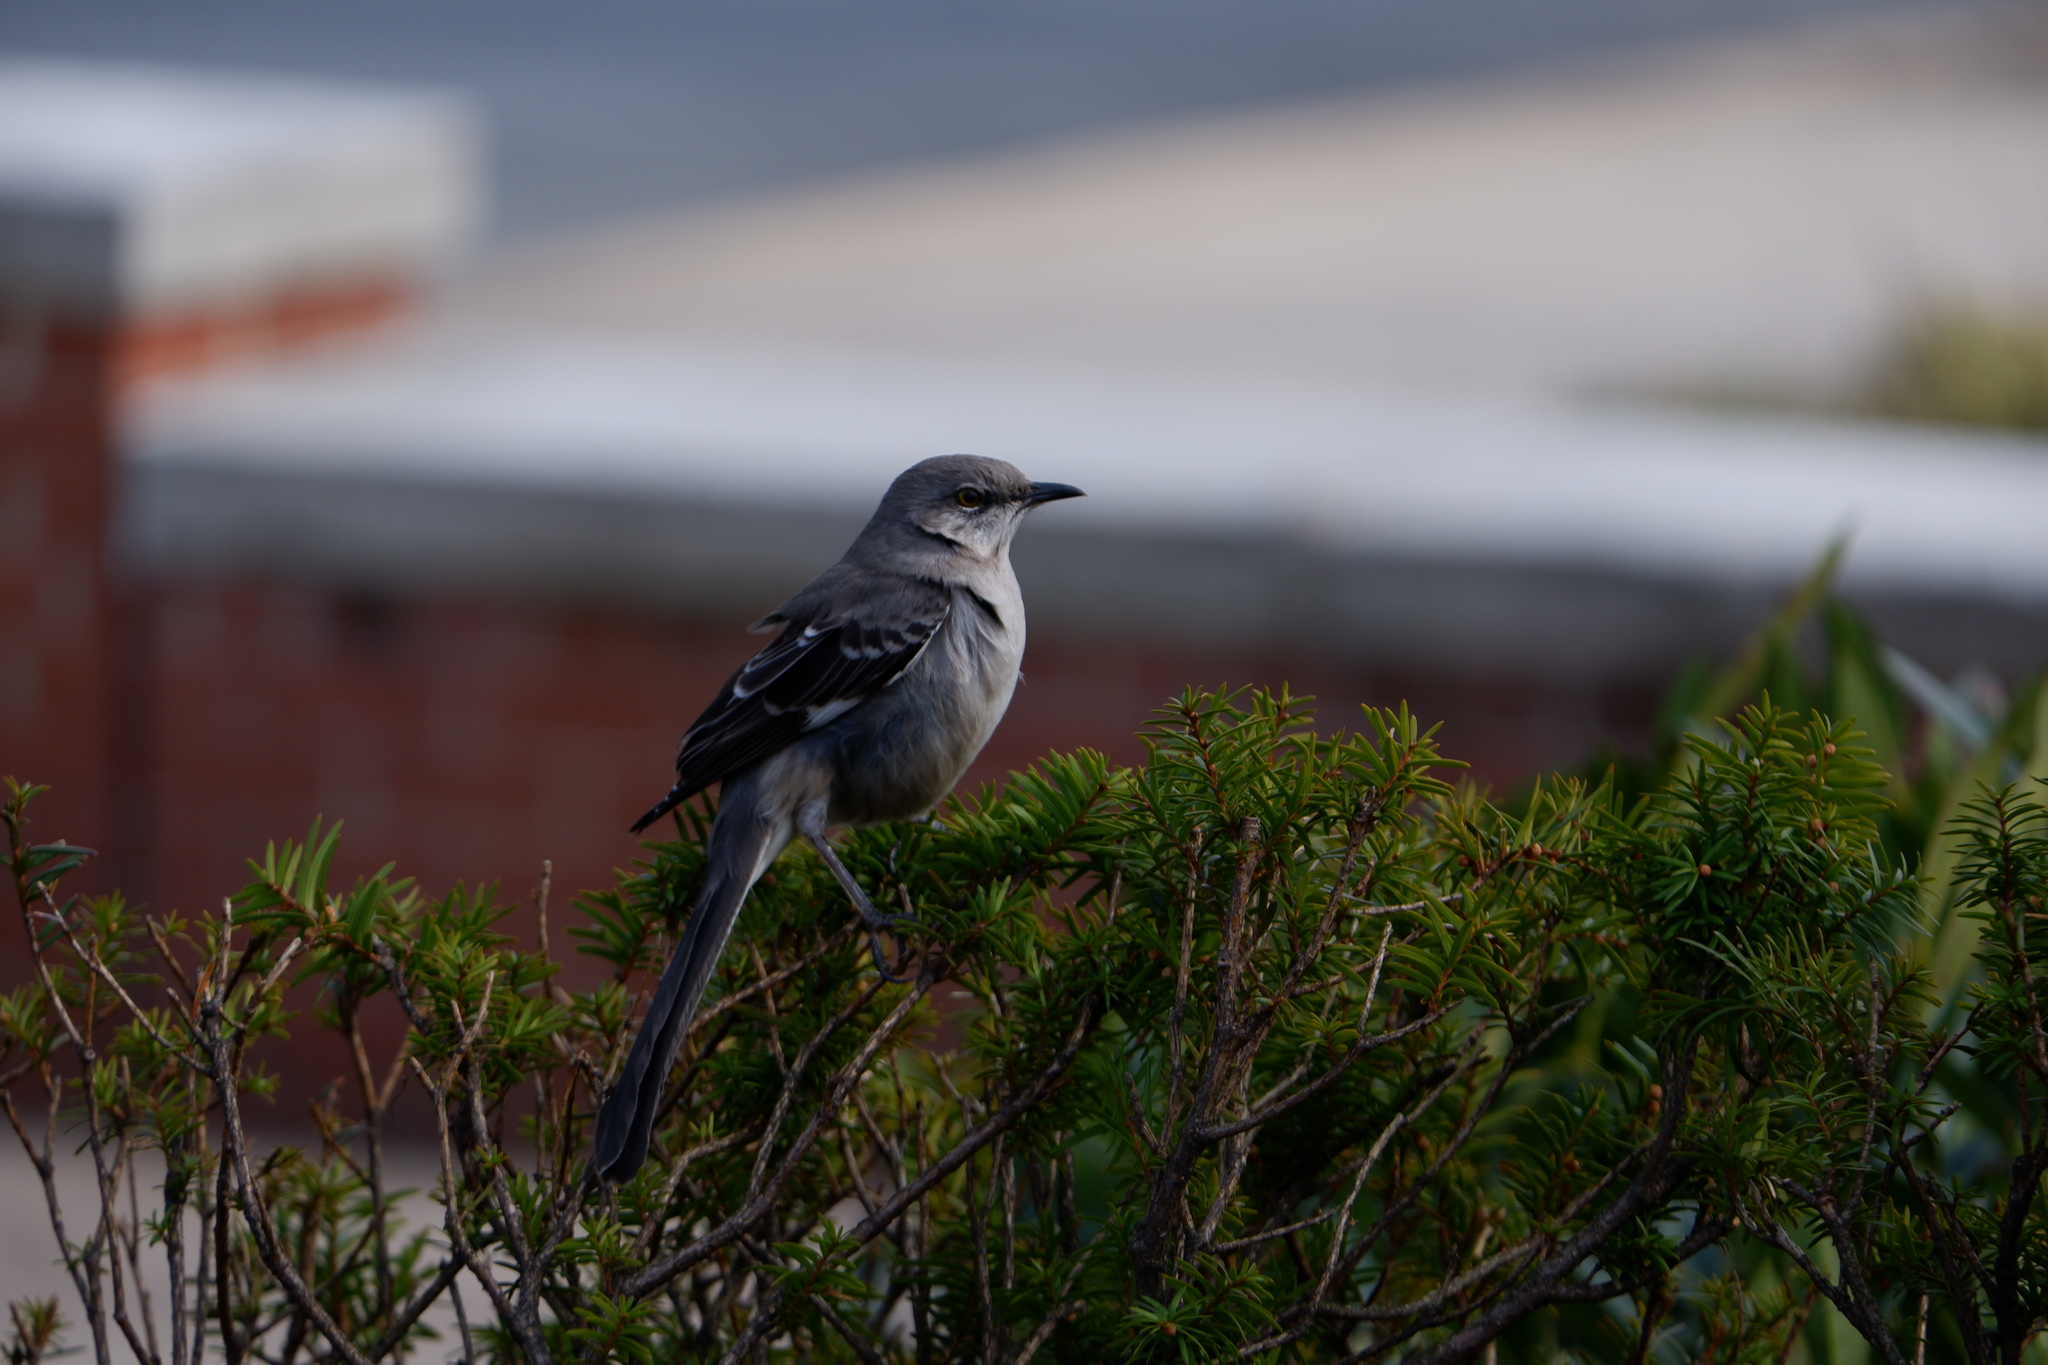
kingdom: Animalia
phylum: Chordata
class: Aves
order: Passeriformes
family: Mimidae
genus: Mimus
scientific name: Mimus polyglottos
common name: Northern mockingbird
